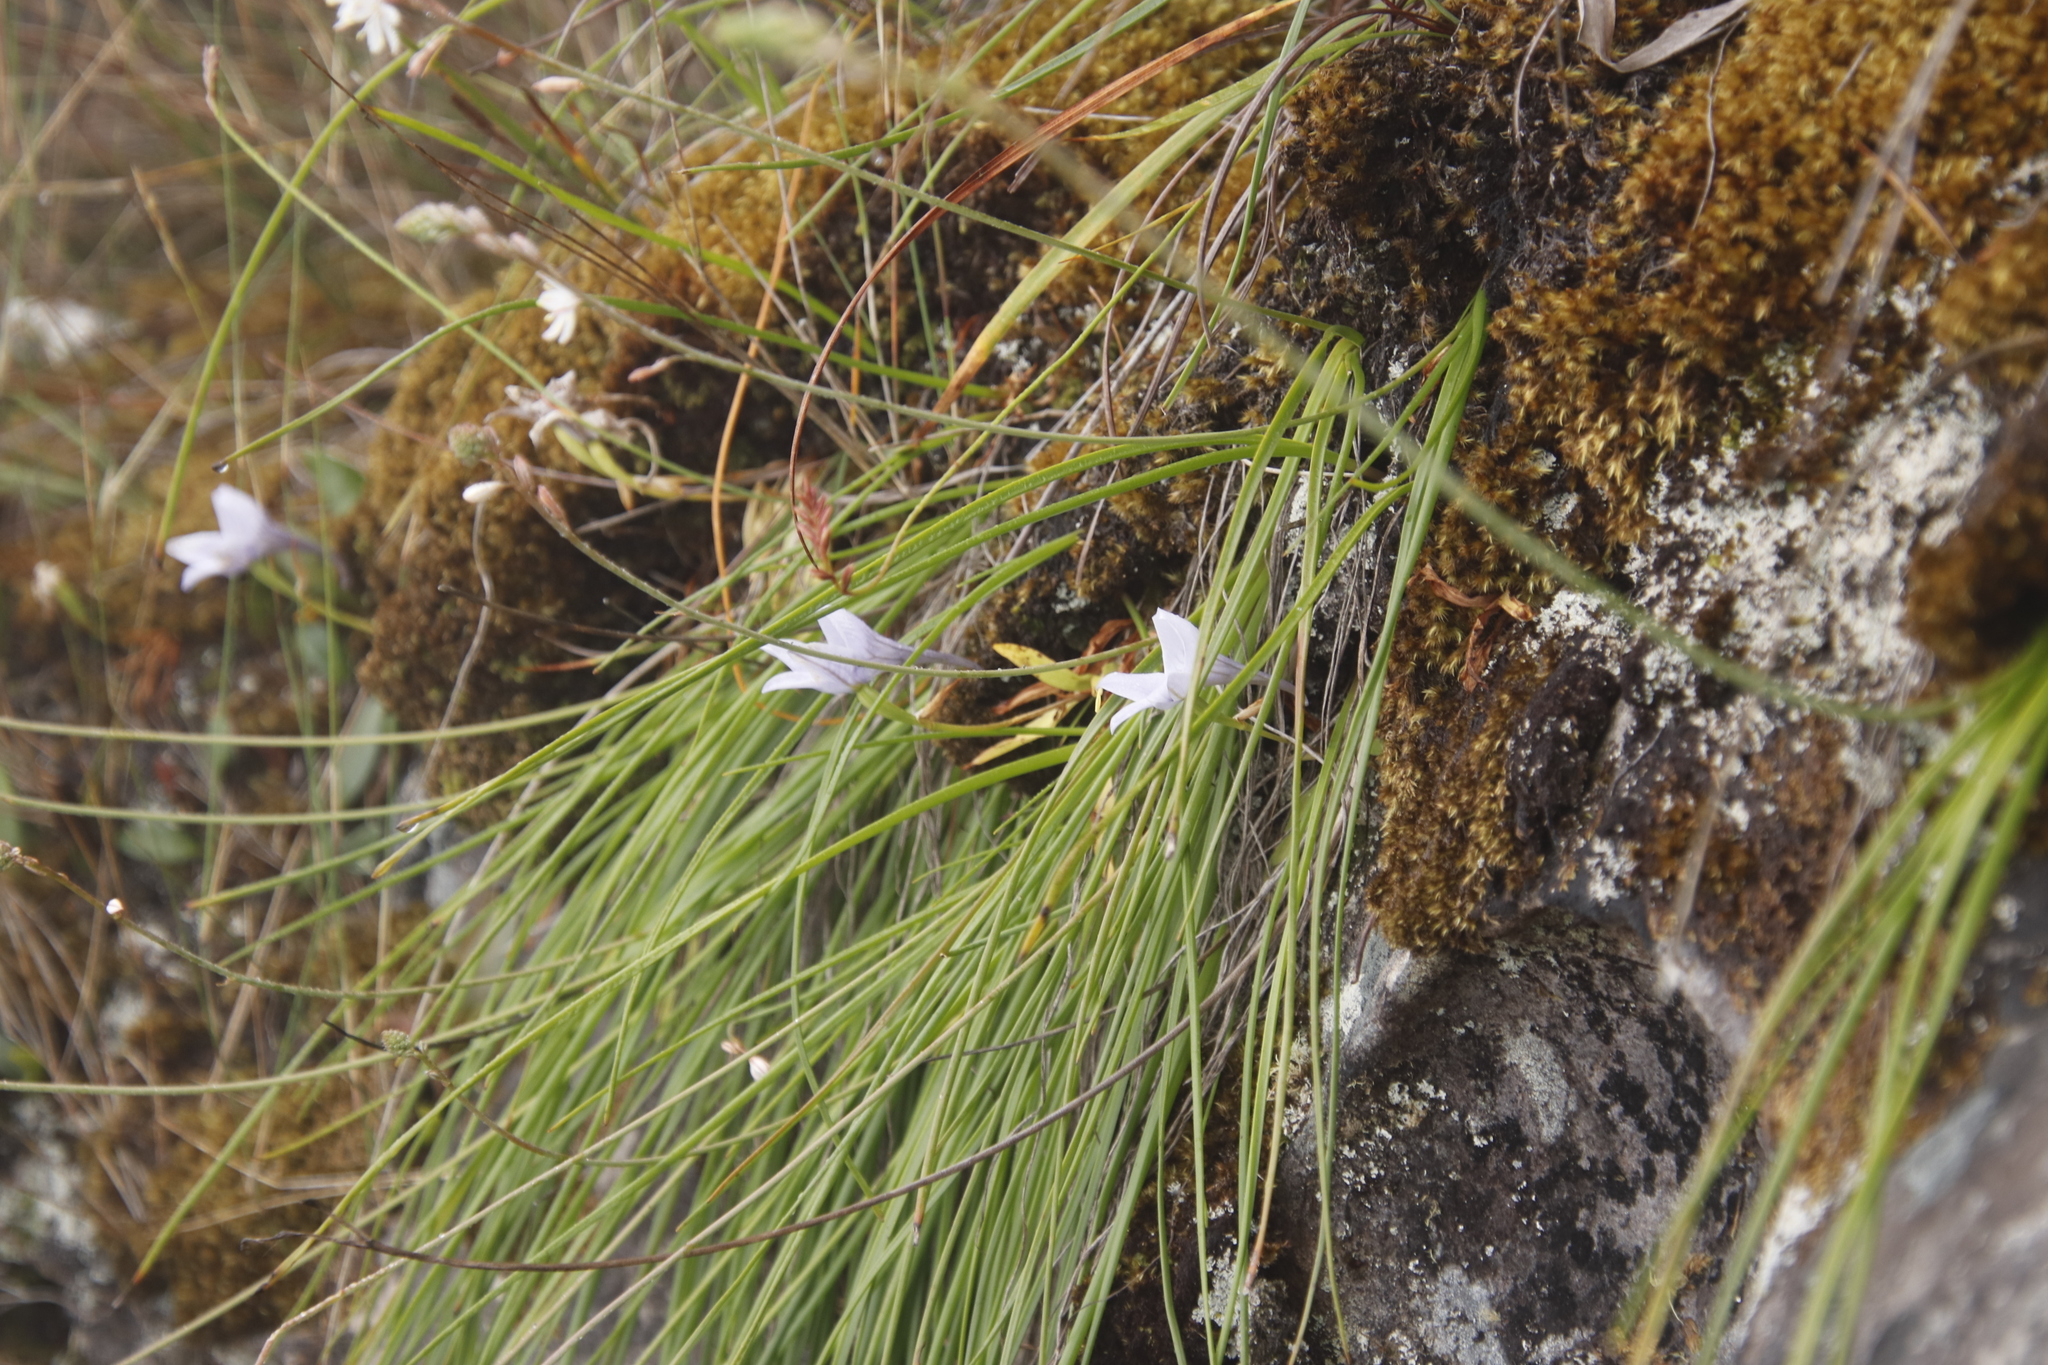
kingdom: Plantae
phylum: Tracheophyta
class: Liliopsida
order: Asparagales
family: Asphodelaceae
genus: Trachyandra
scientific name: Trachyandra tabularis
